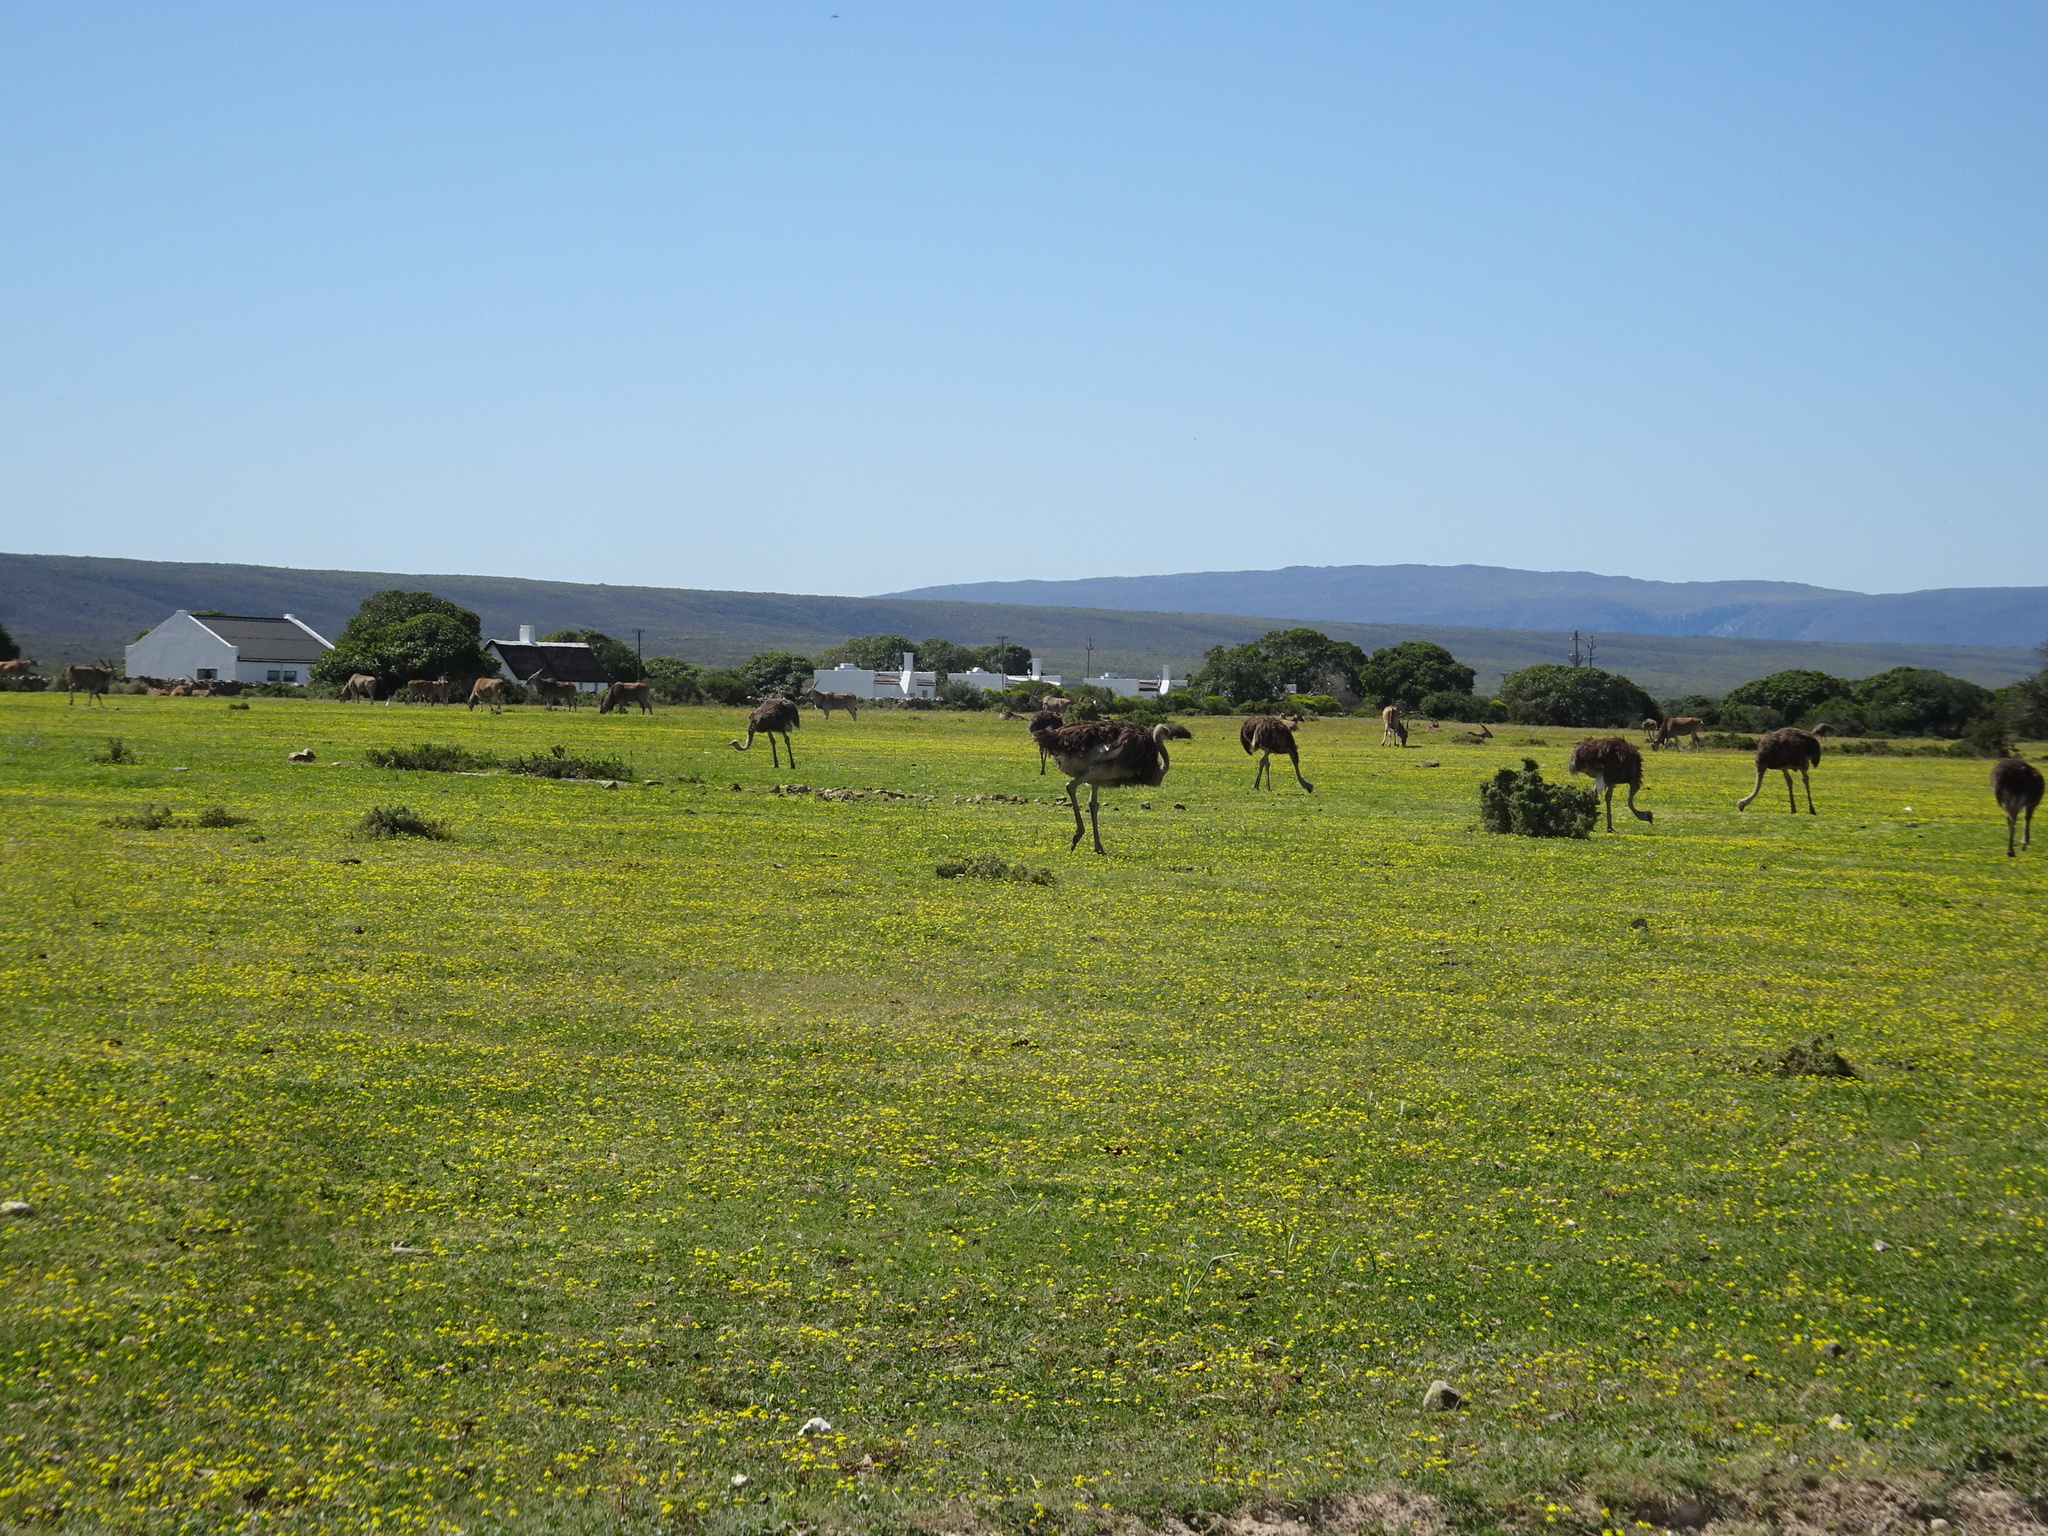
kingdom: Animalia
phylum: Chordata
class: Aves
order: Struthioniformes
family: Struthionidae
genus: Struthio
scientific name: Struthio camelus
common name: Common ostrich
